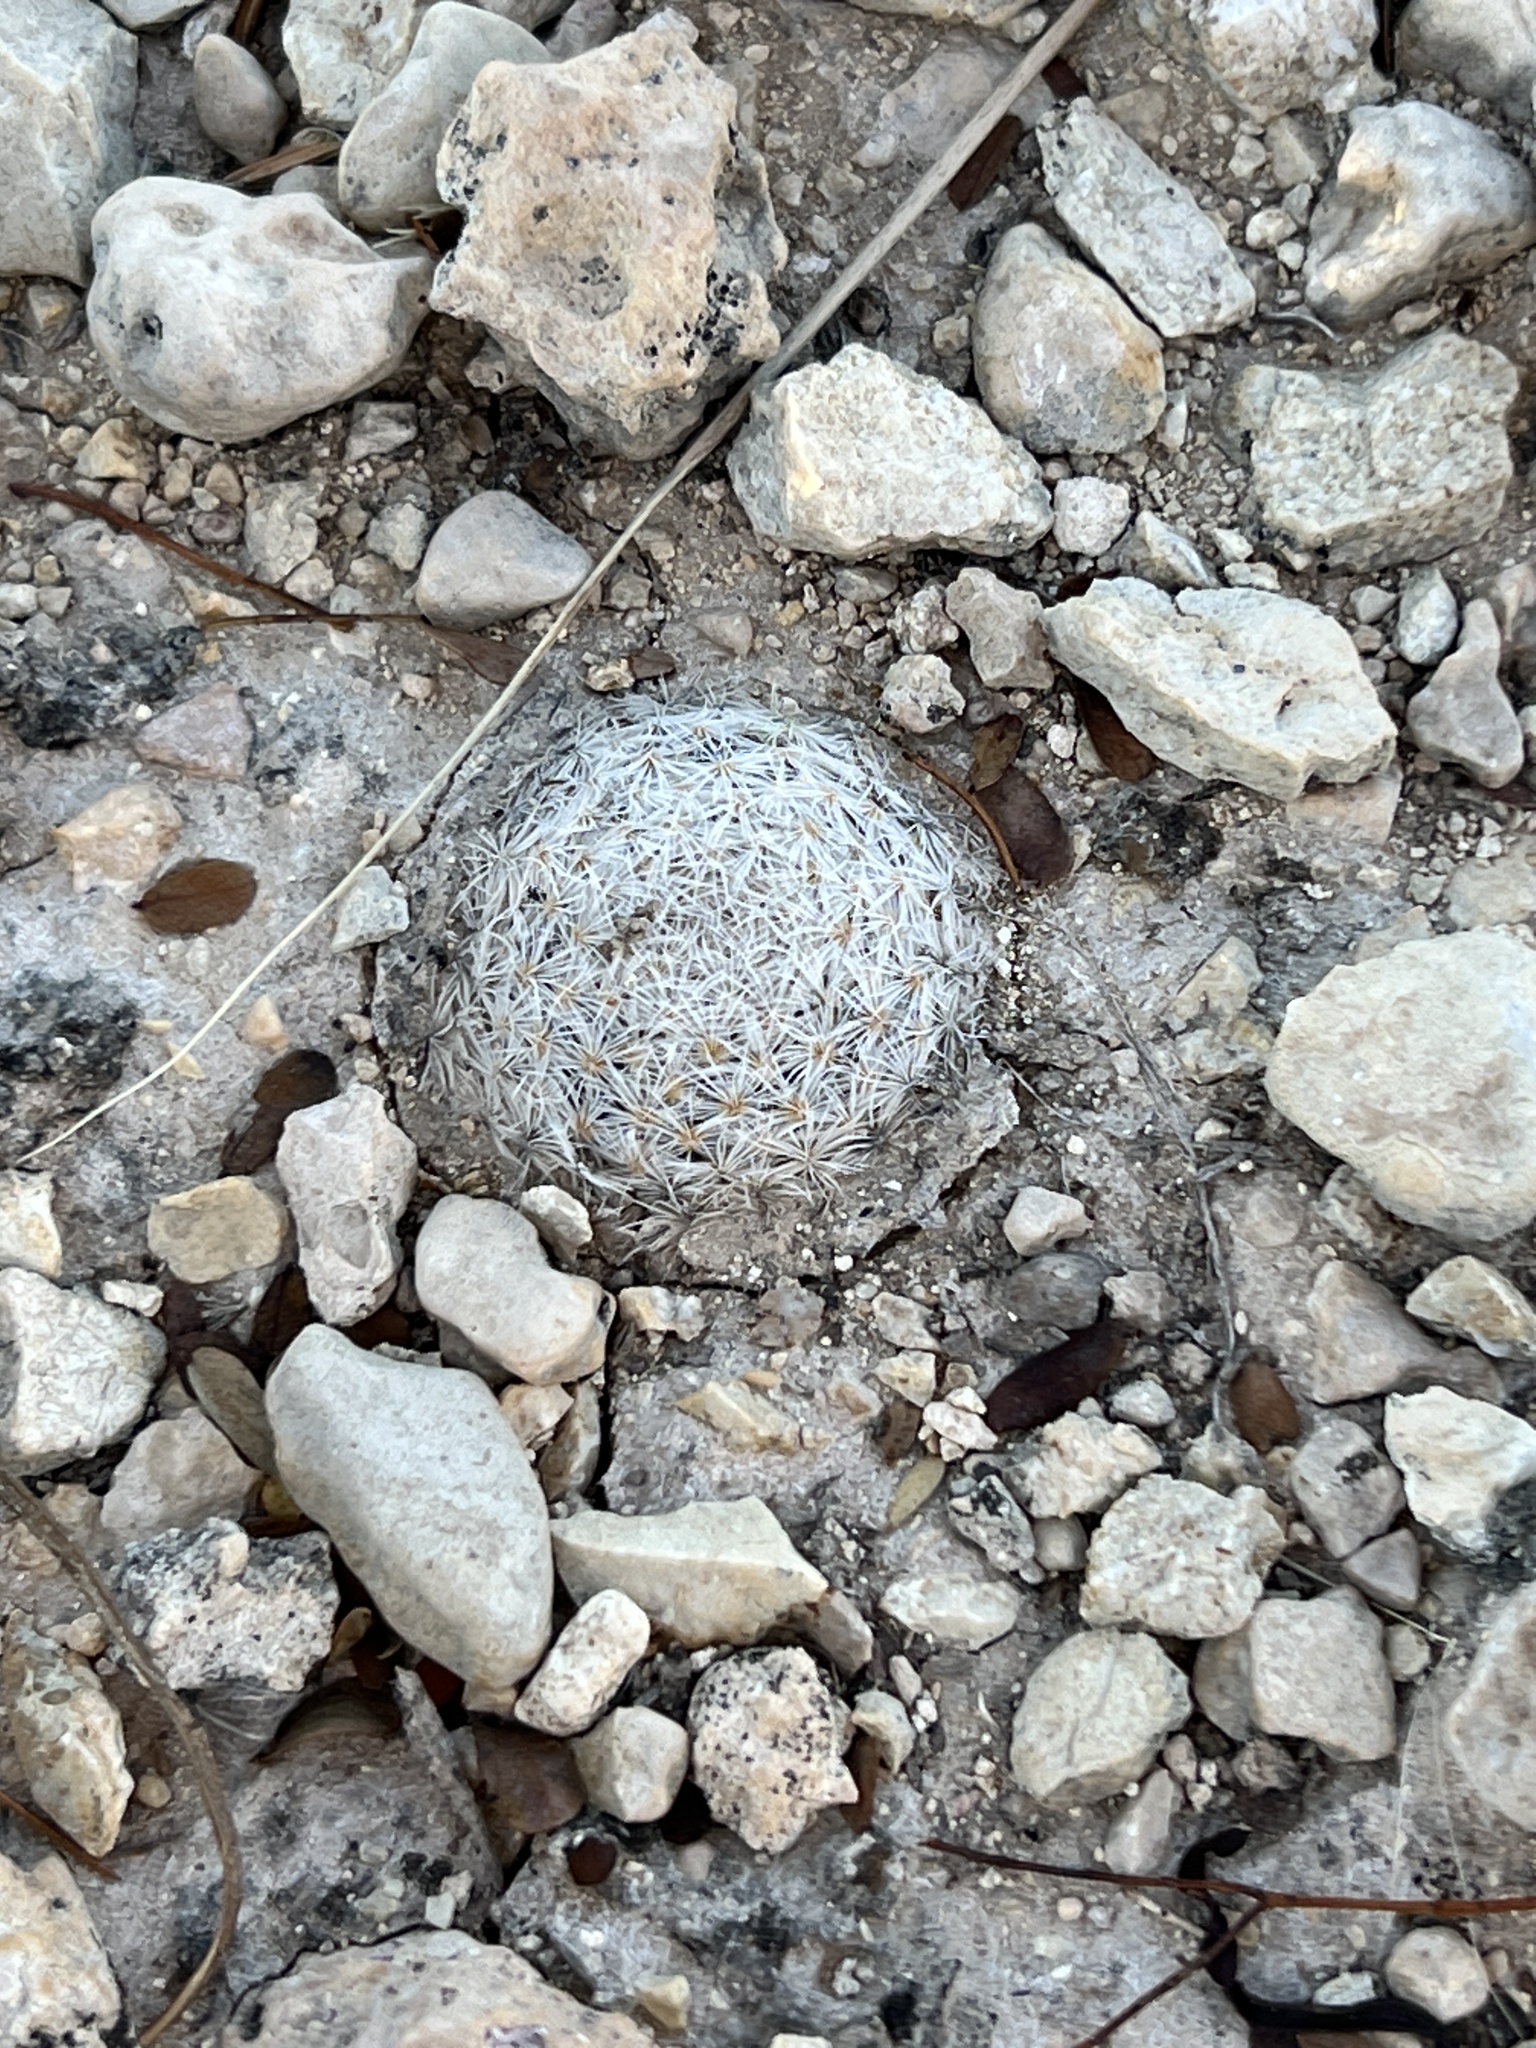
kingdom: Plantae
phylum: Tracheophyta
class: Magnoliopsida
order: Caryophyllales
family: Cactaceae
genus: Mammillaria
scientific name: Mammillaria lasiacantha
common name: Lace-spine nipple cactus
